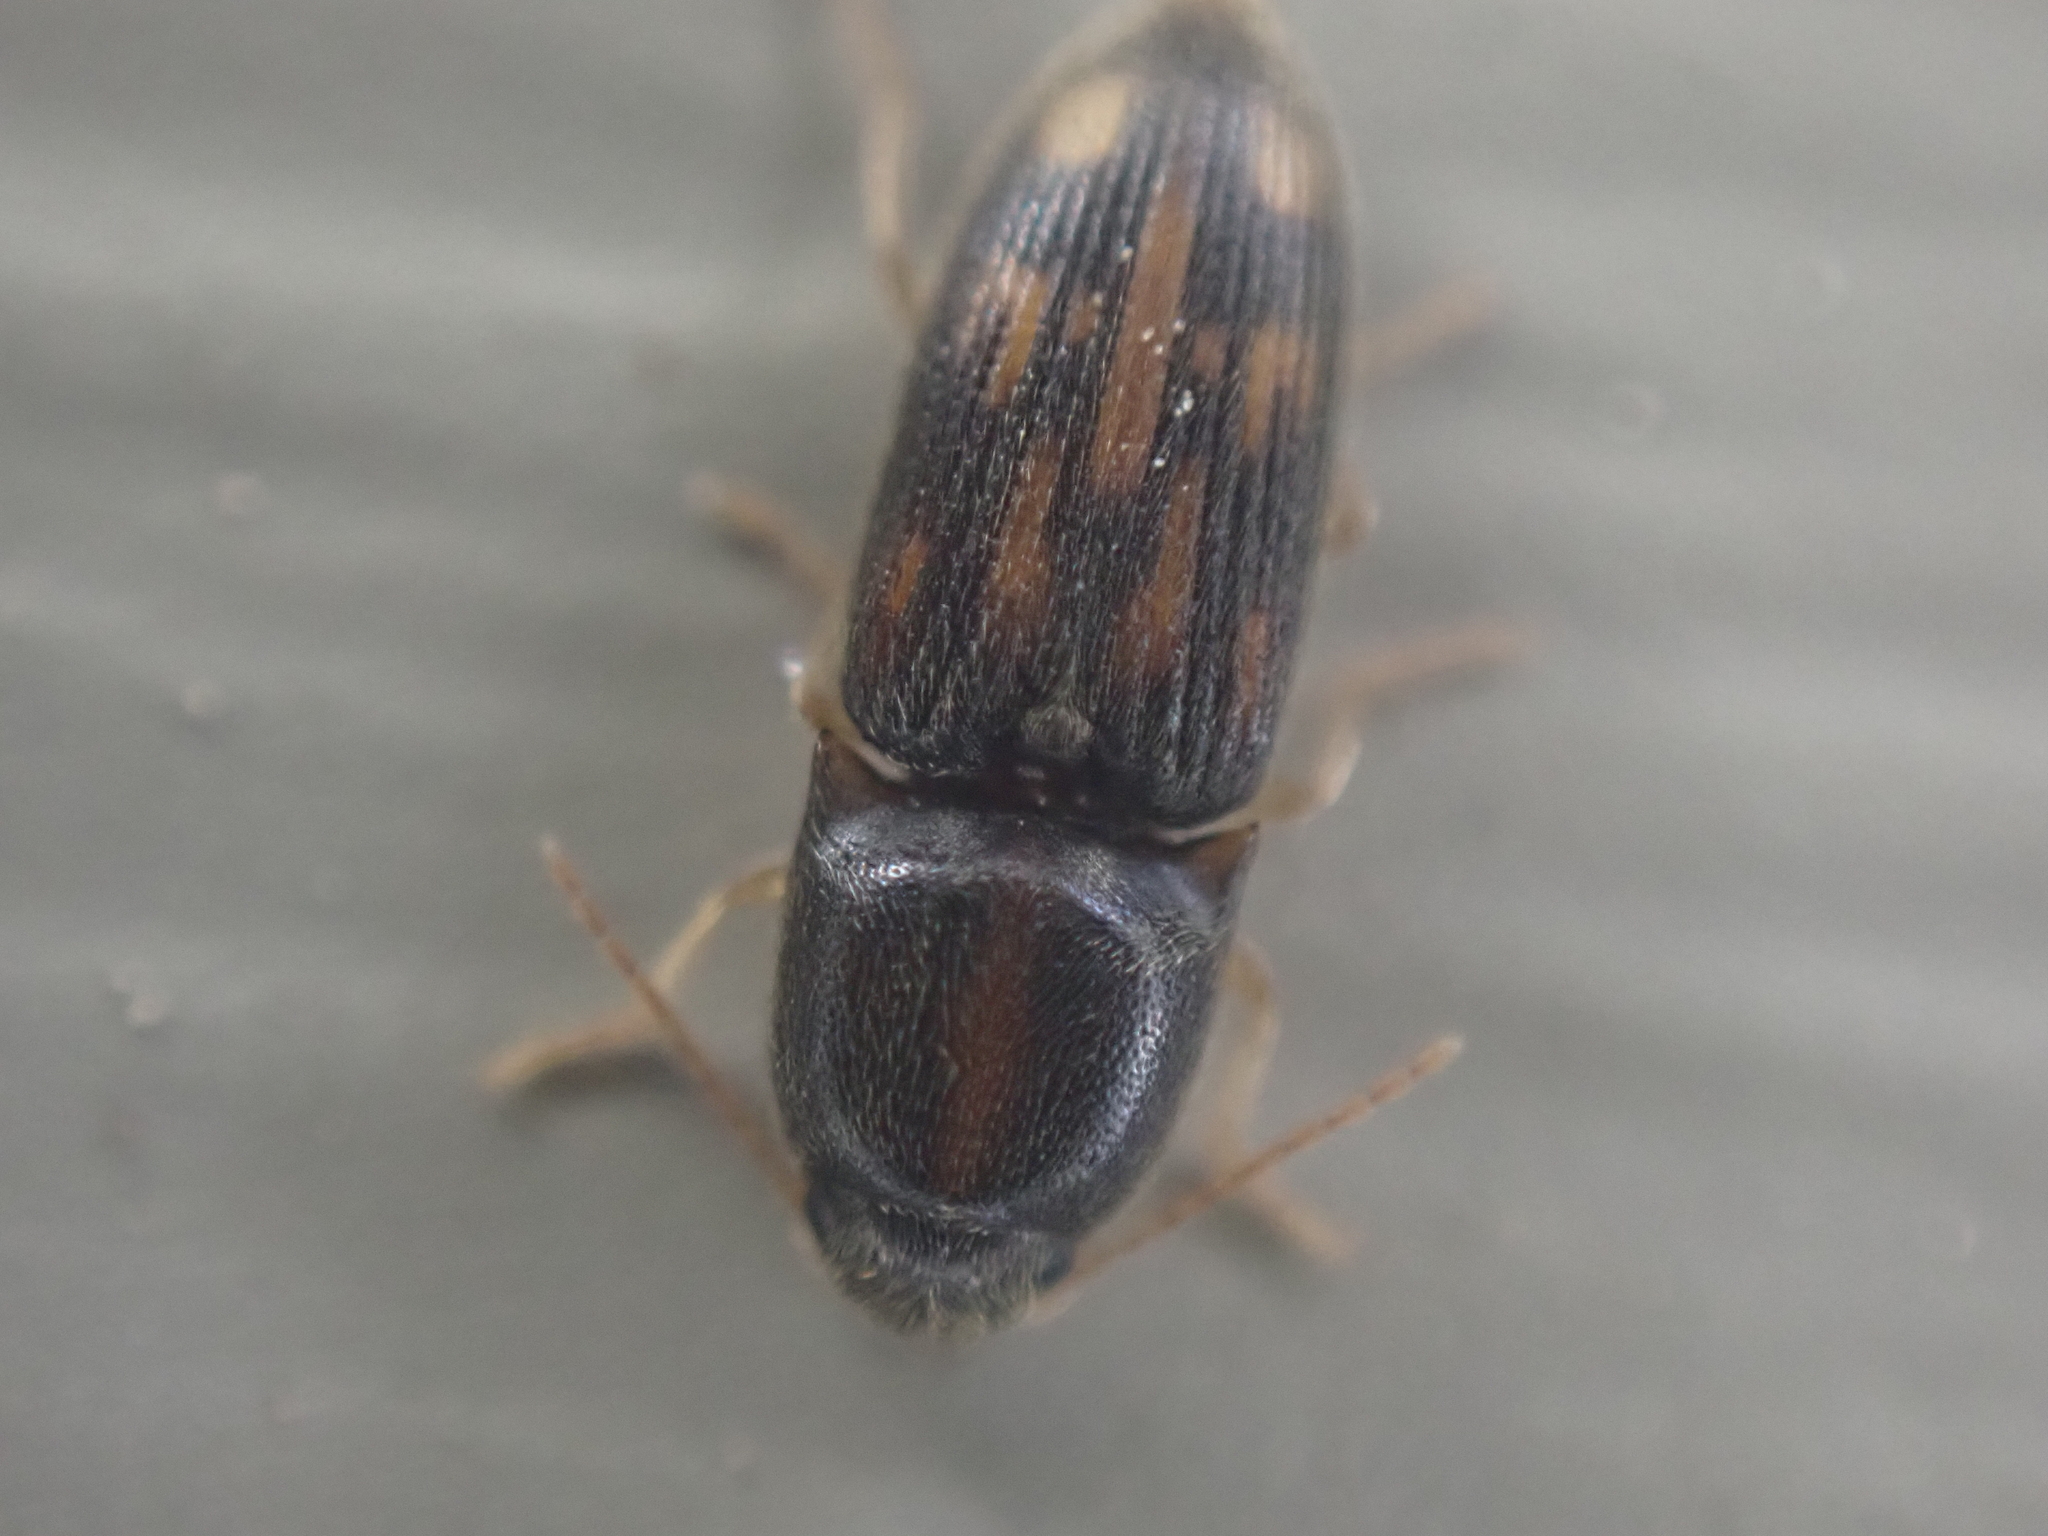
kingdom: Animalia
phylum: Arthropoda
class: Insecta
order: Coleoptera
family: Elateridae
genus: Monocrepidius
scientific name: Monocrepidius bellus
